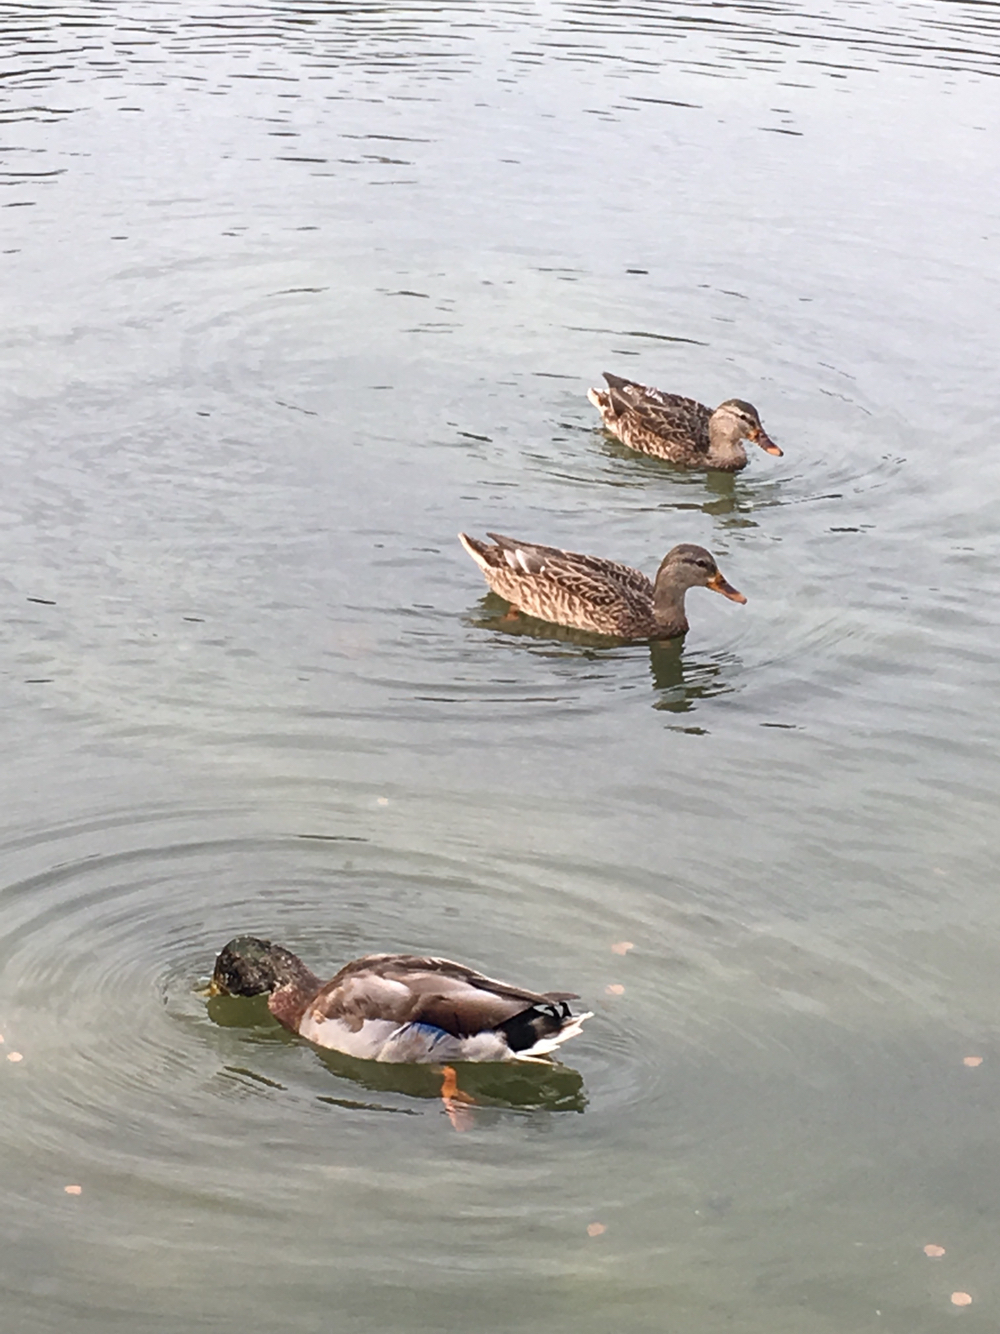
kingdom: Animalia
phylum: Chordata
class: Aves
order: Anseriformes
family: Anatidae
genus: Anas
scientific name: Anas platyrhynchos
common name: Mallard
